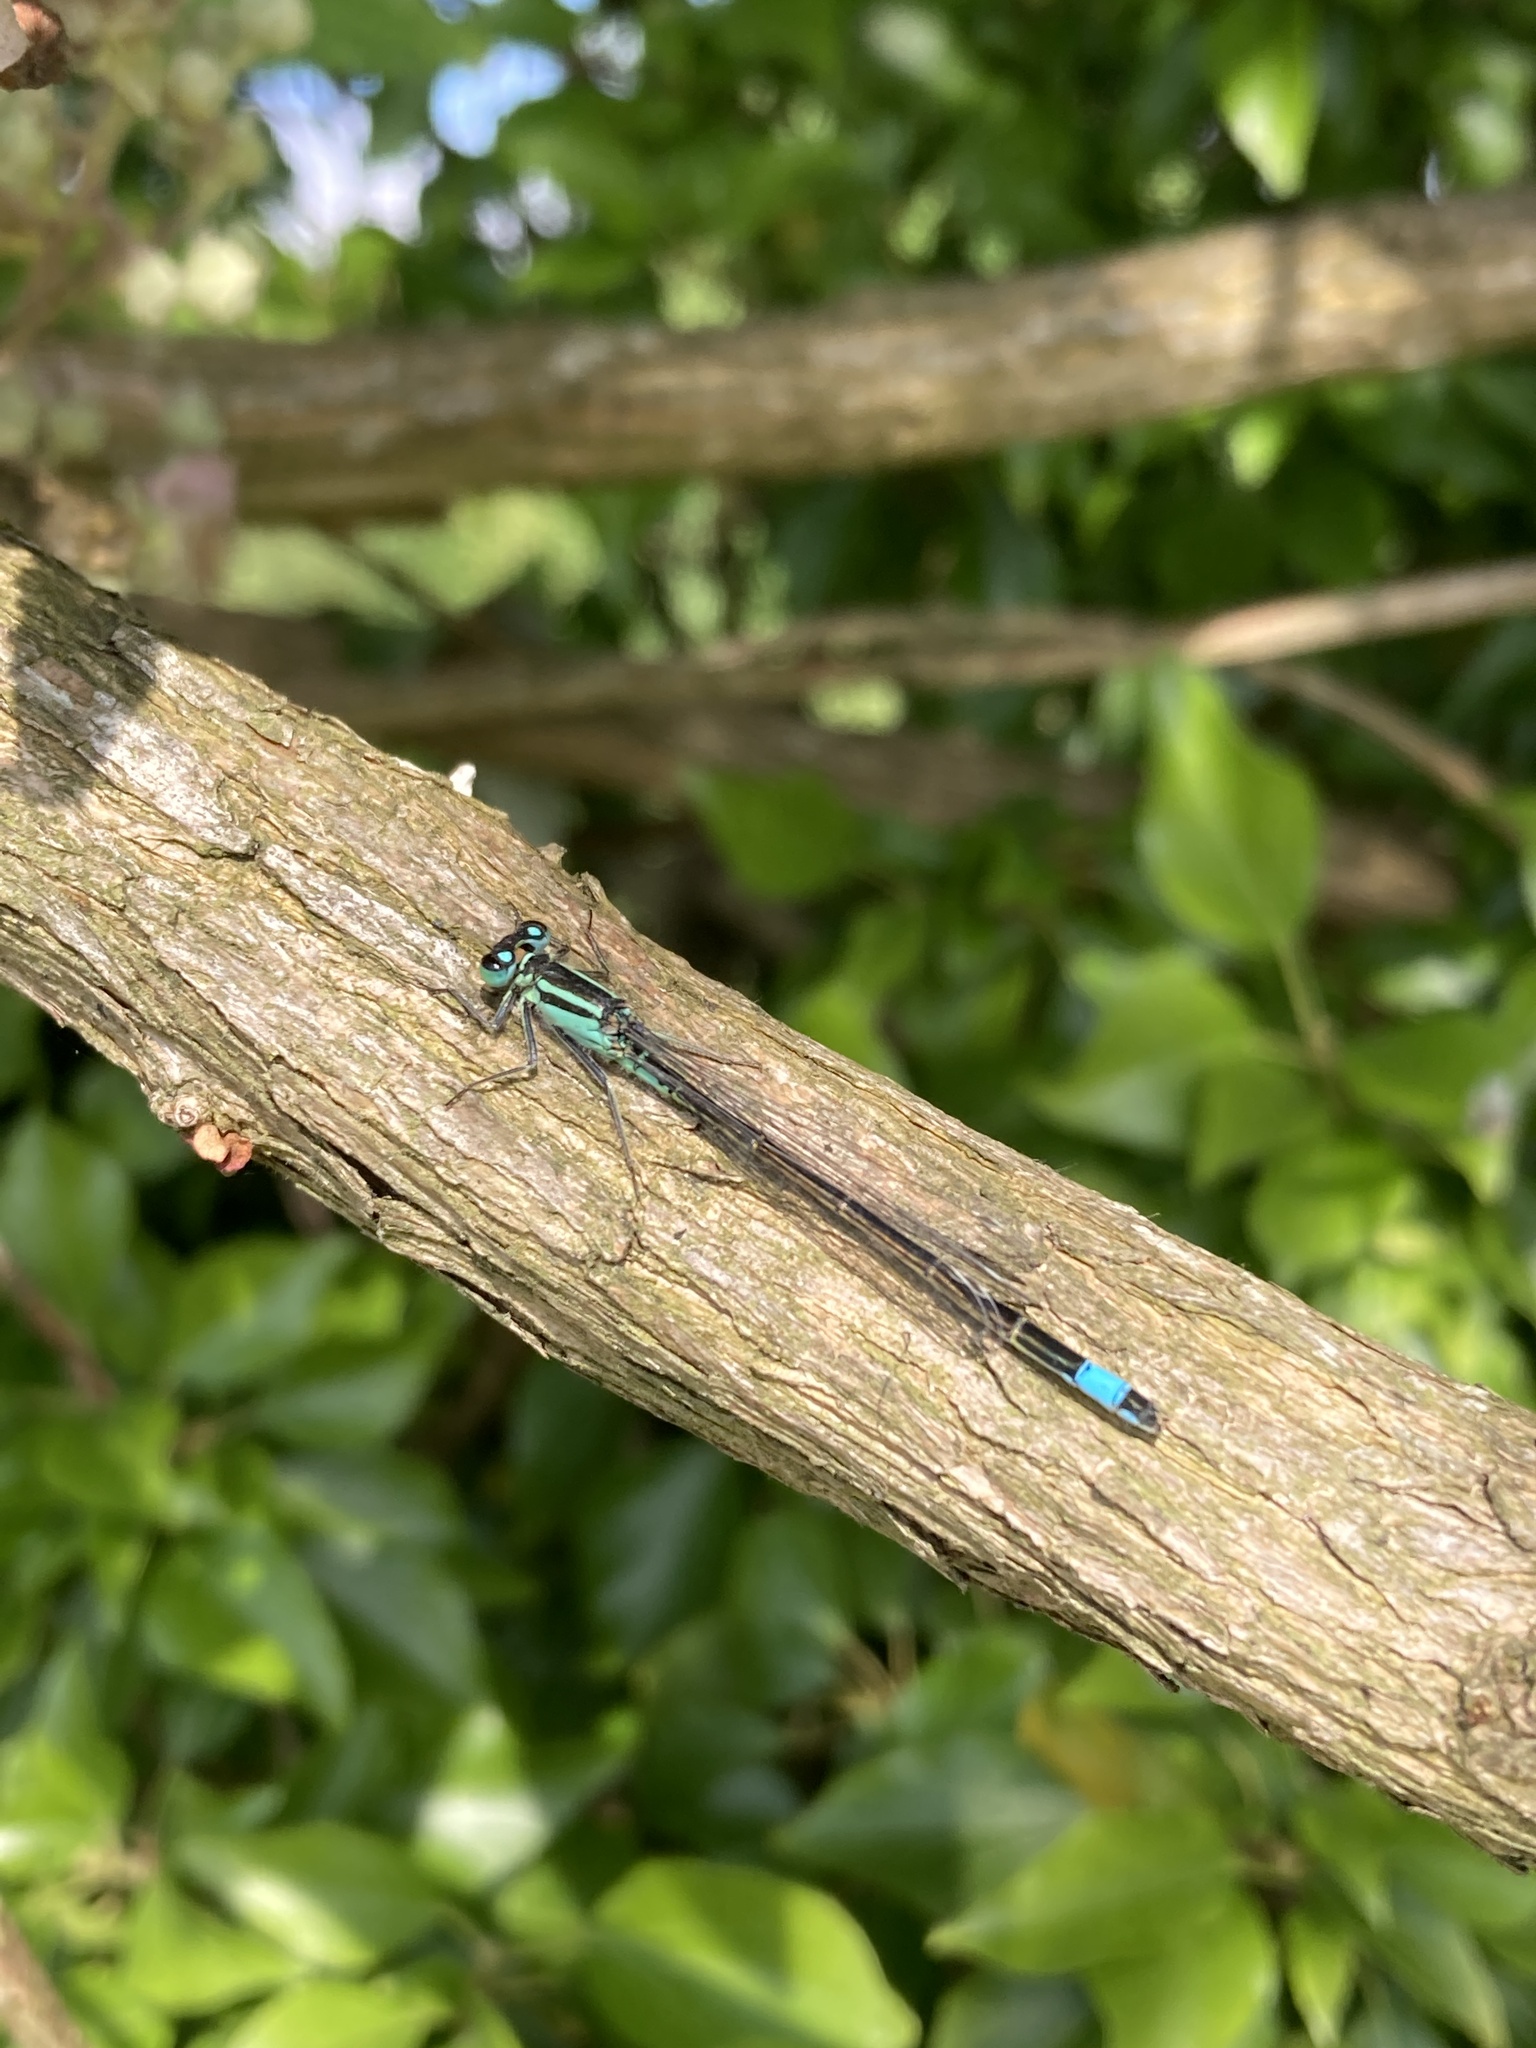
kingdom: Animalia
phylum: Arthropoda
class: Insecta
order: Odonata
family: Coenagrionidae
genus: Ischnura
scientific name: Ischnura elegans
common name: Blue-tailed damselfly
